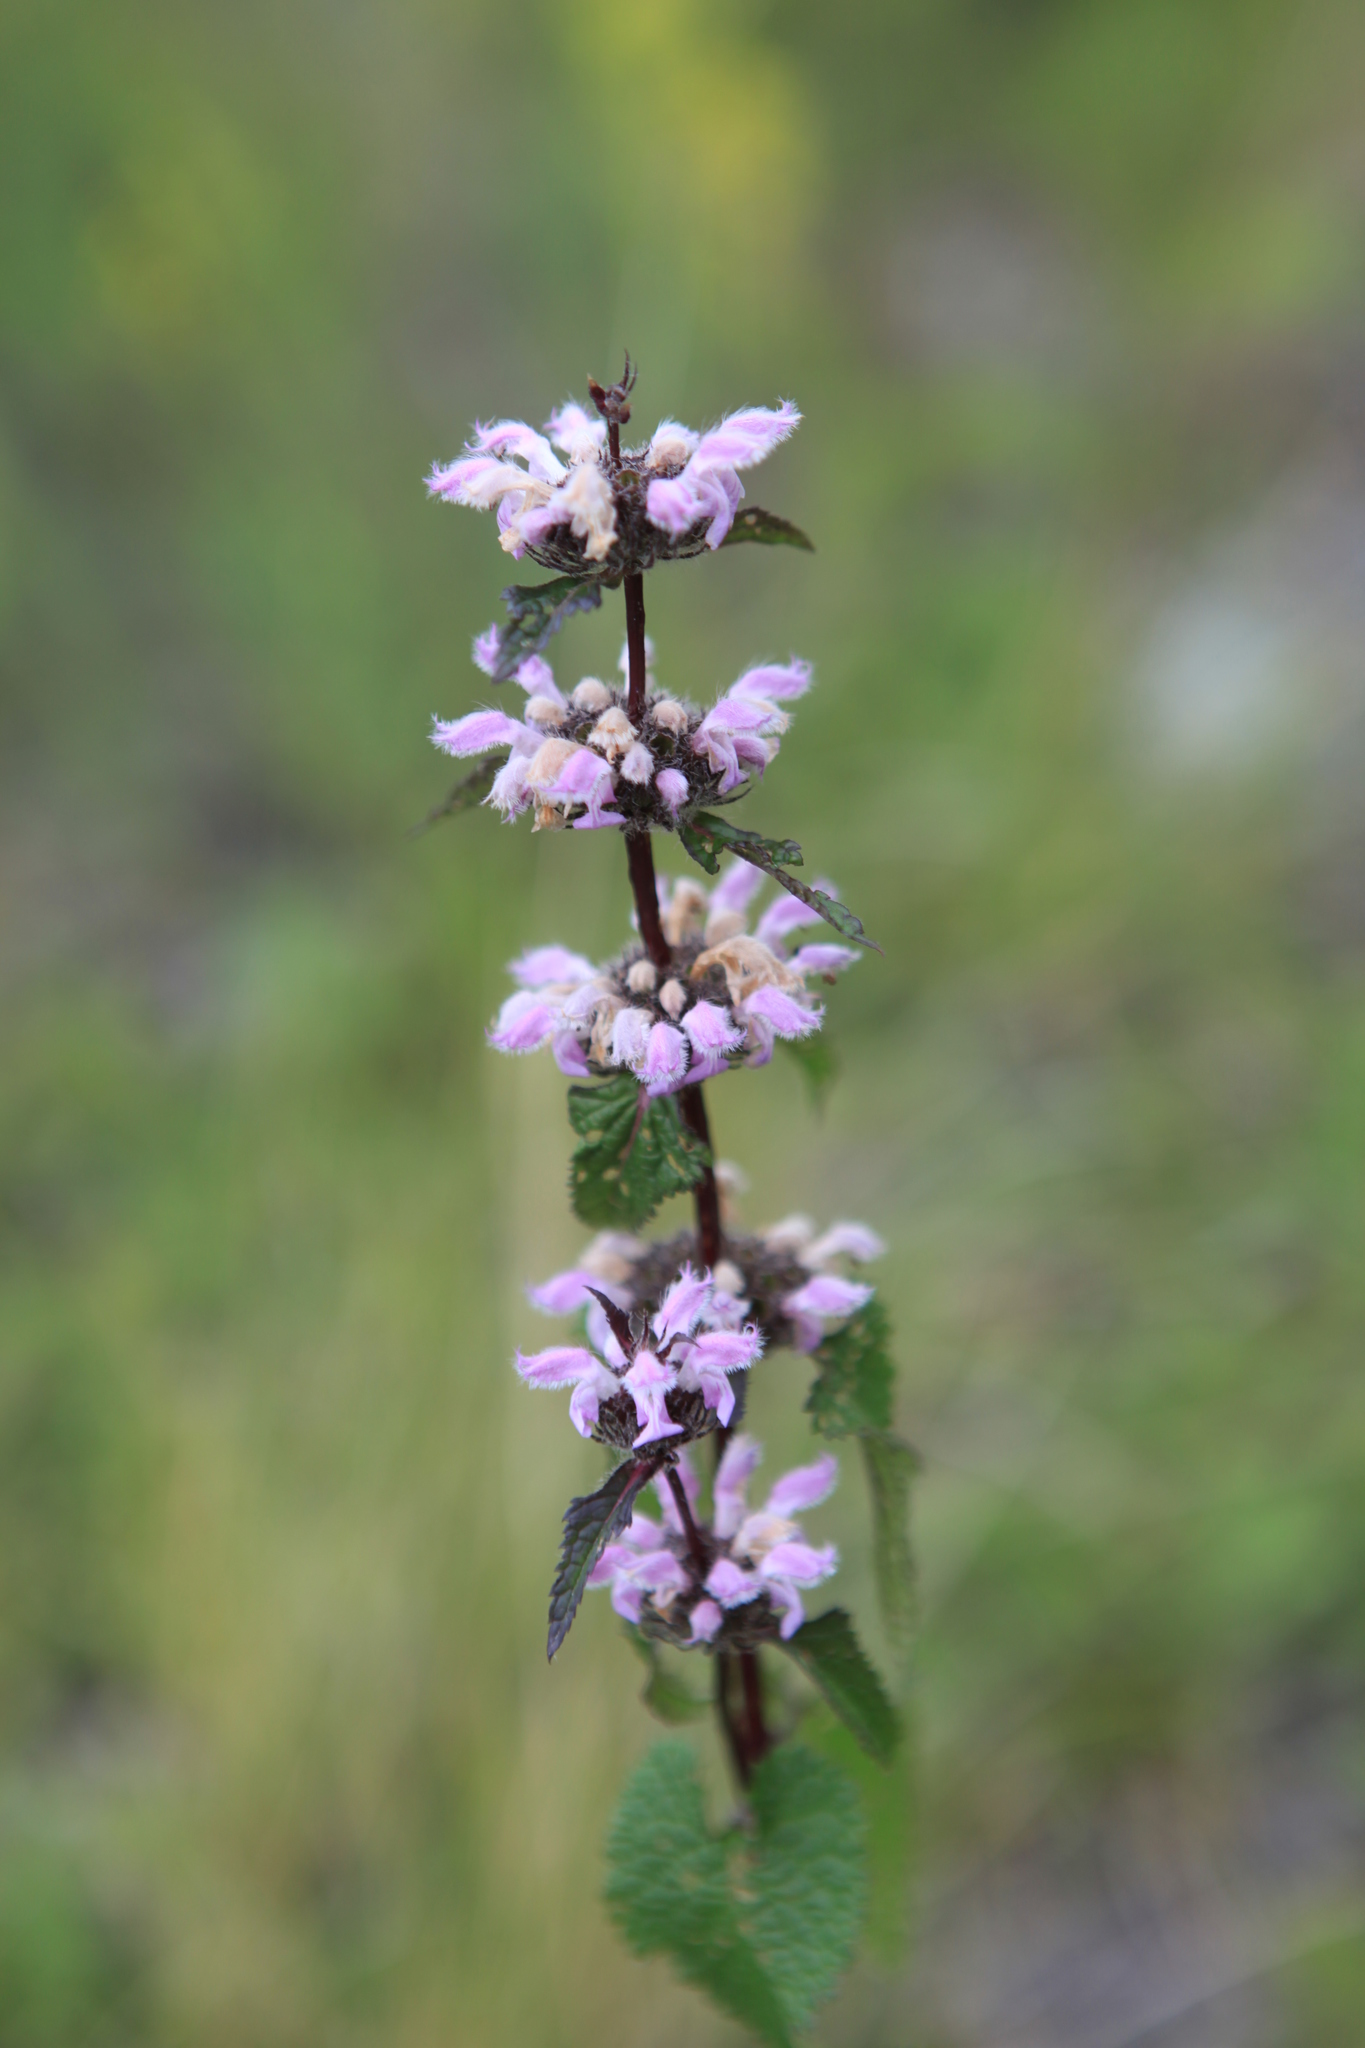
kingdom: Plantae
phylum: Tracheophyta
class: Magnoliopsida
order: Lamiales
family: Lamiaceae
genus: Phlomoides
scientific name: Phlomoides tuberosa
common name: Tuberous jerusalem sage
